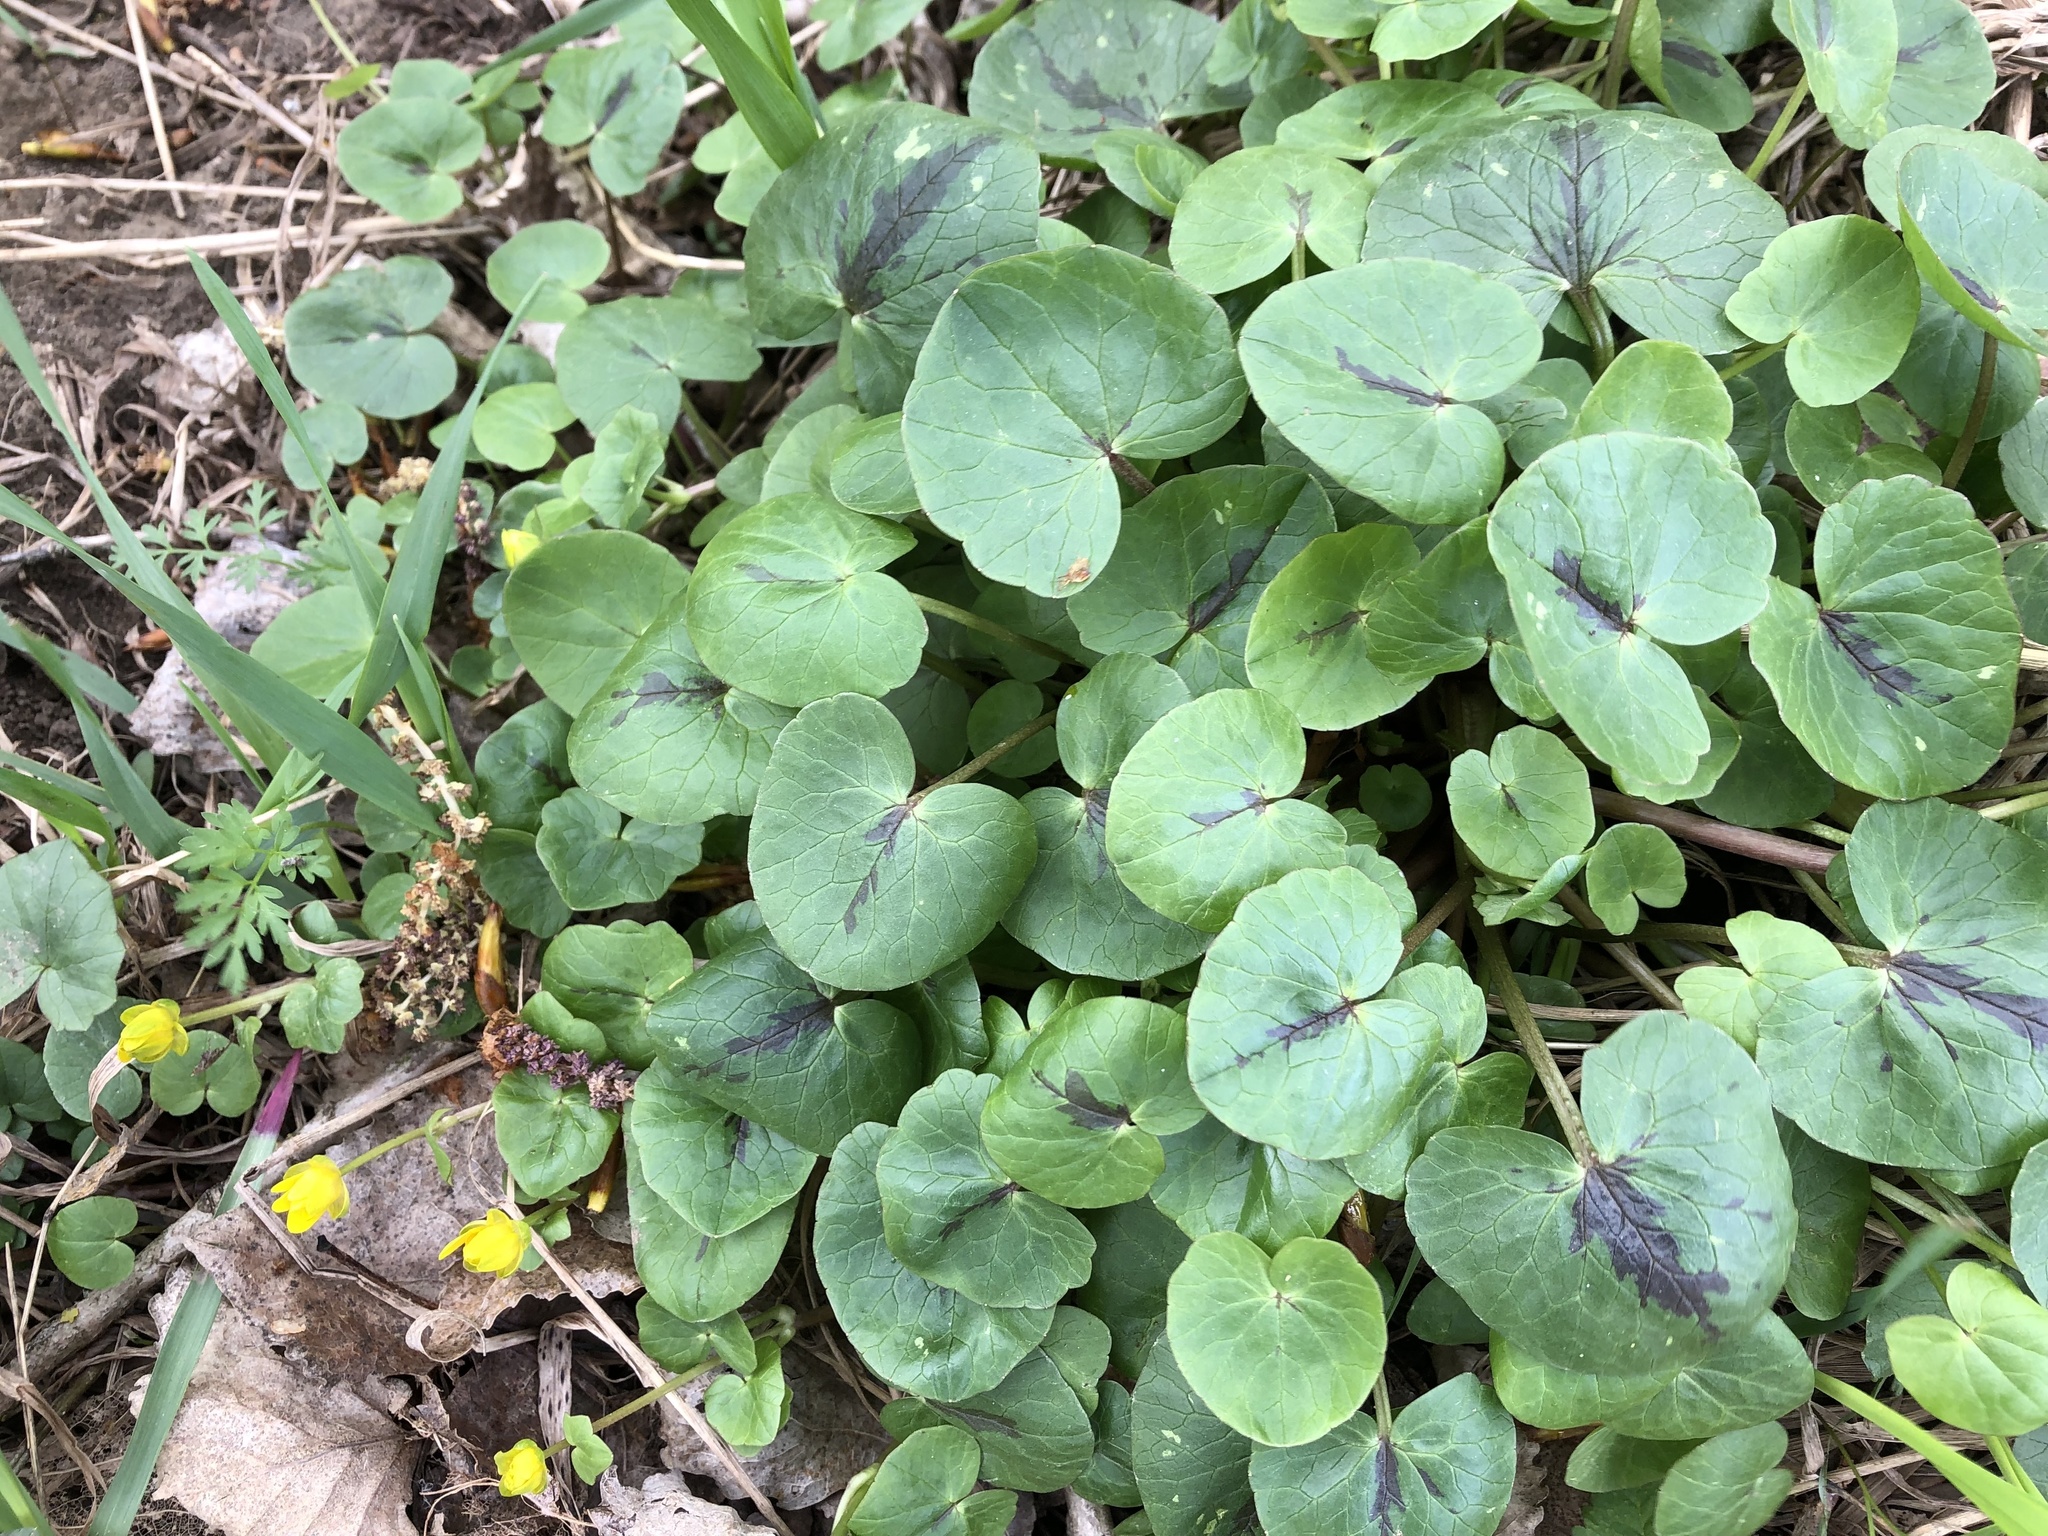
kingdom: Plantae
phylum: Tracheophyta
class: Magnoliopsida
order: Ranunculales
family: Ranunculaceae
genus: Ficaria
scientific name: Ficaria verna
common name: Lesser celandine
